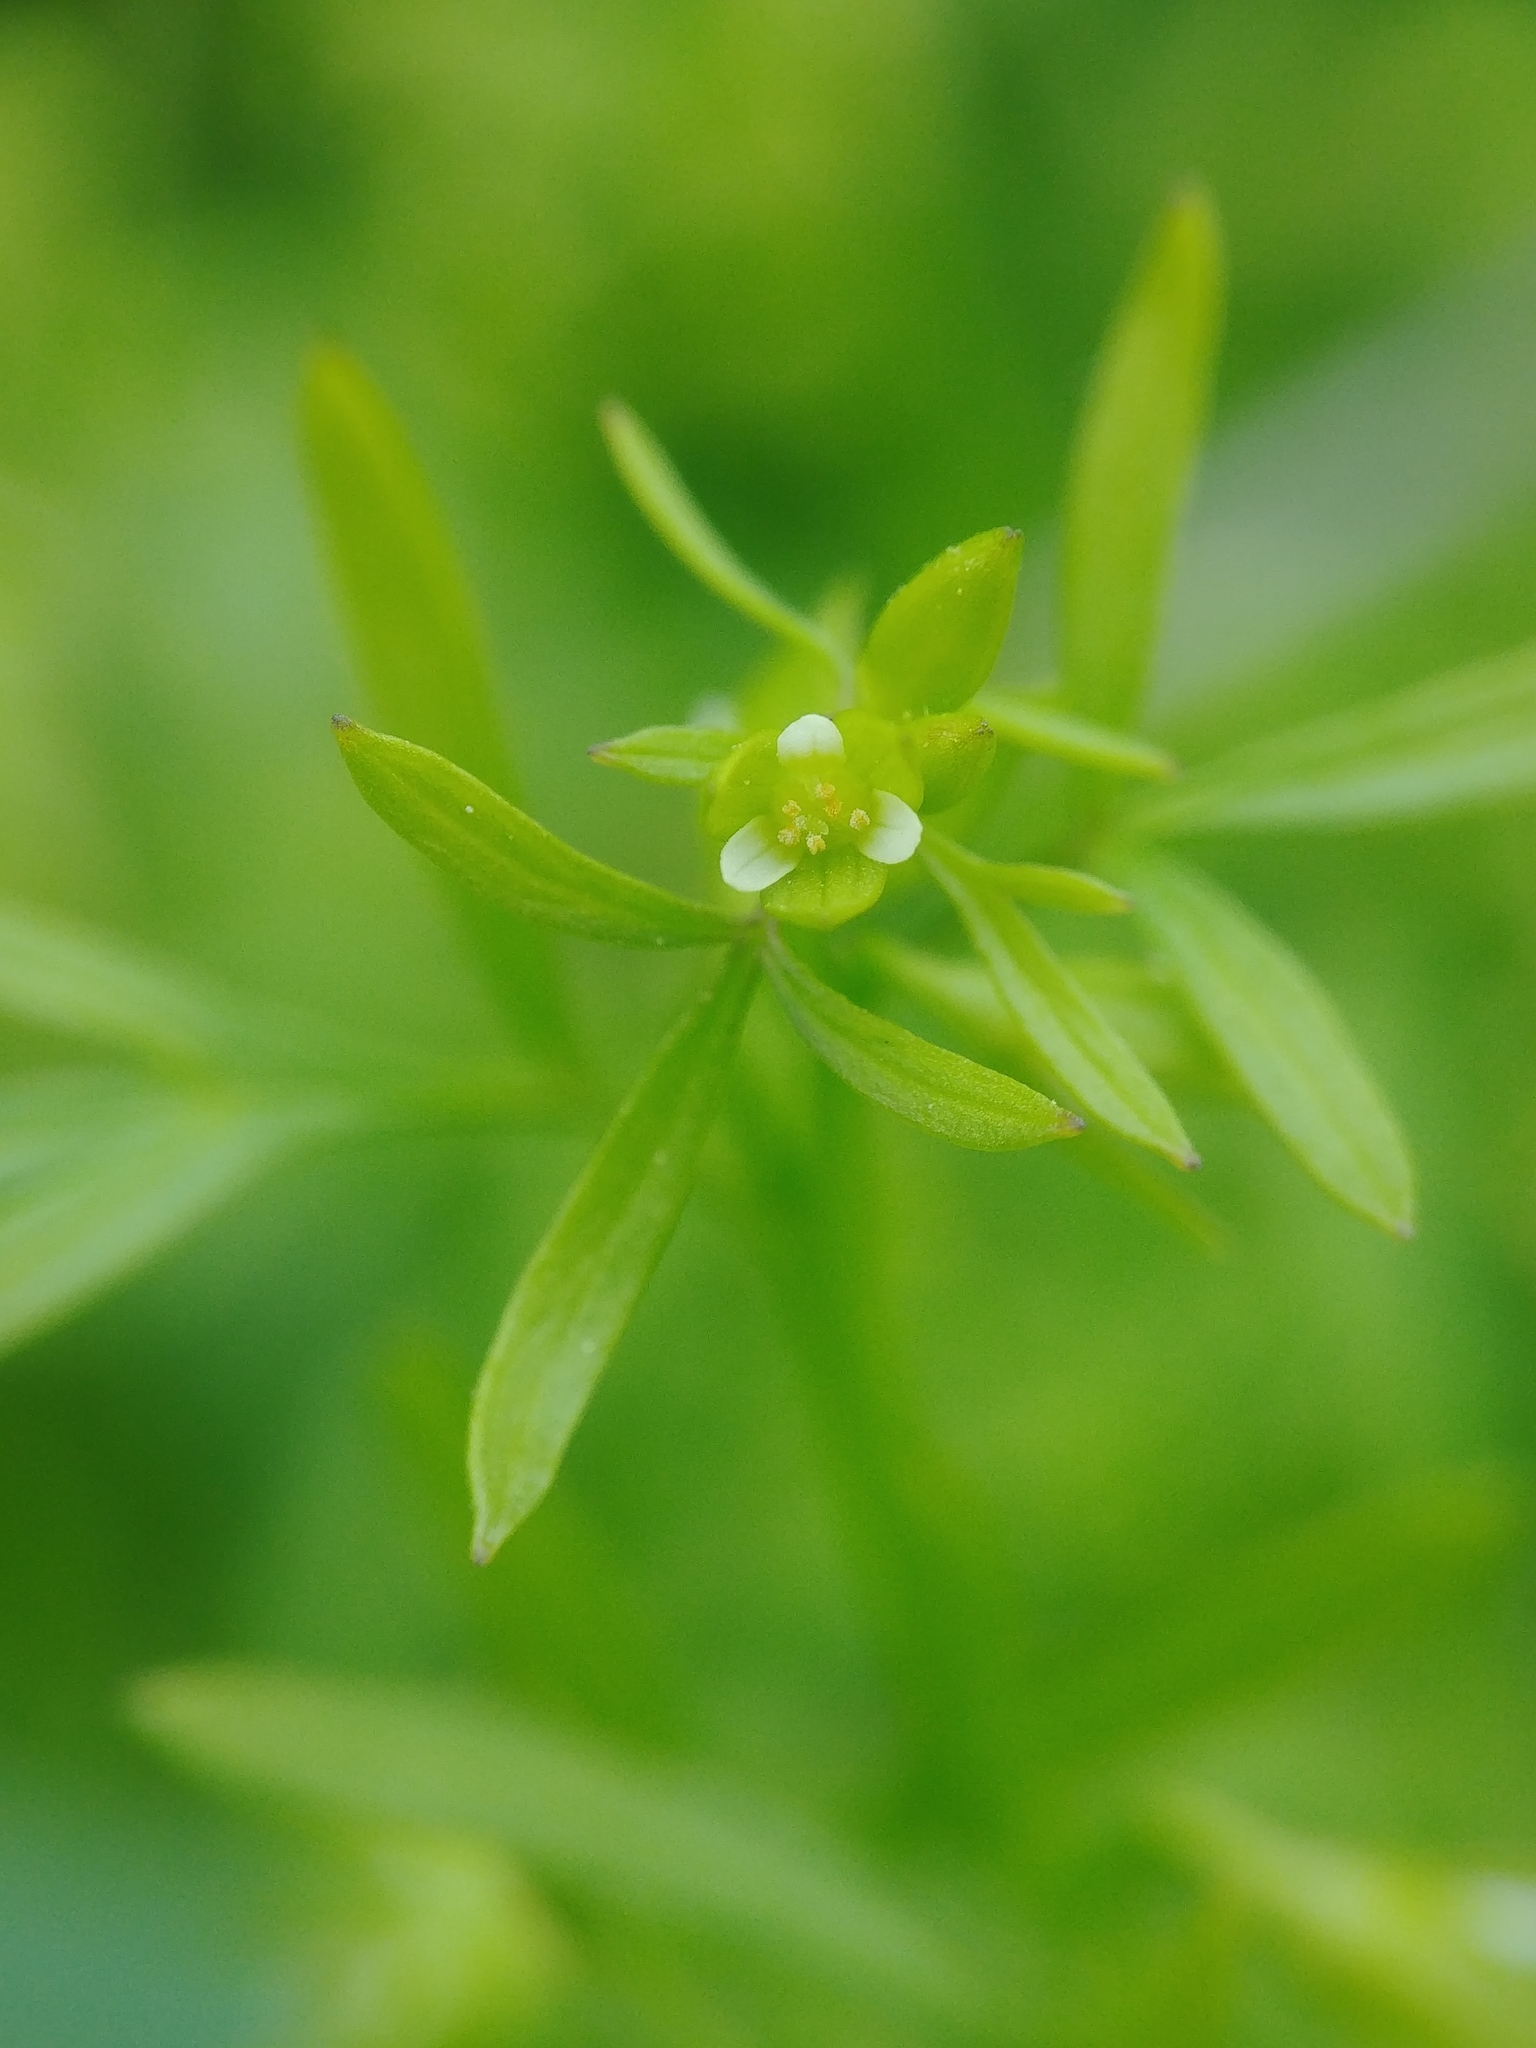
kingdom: Plantae
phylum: Tracheophyta
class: Magnoliopsida
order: Brassicales
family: Limnanthaceae
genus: Floerkea
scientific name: Floerkea proserpinacoides
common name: False mermaid
